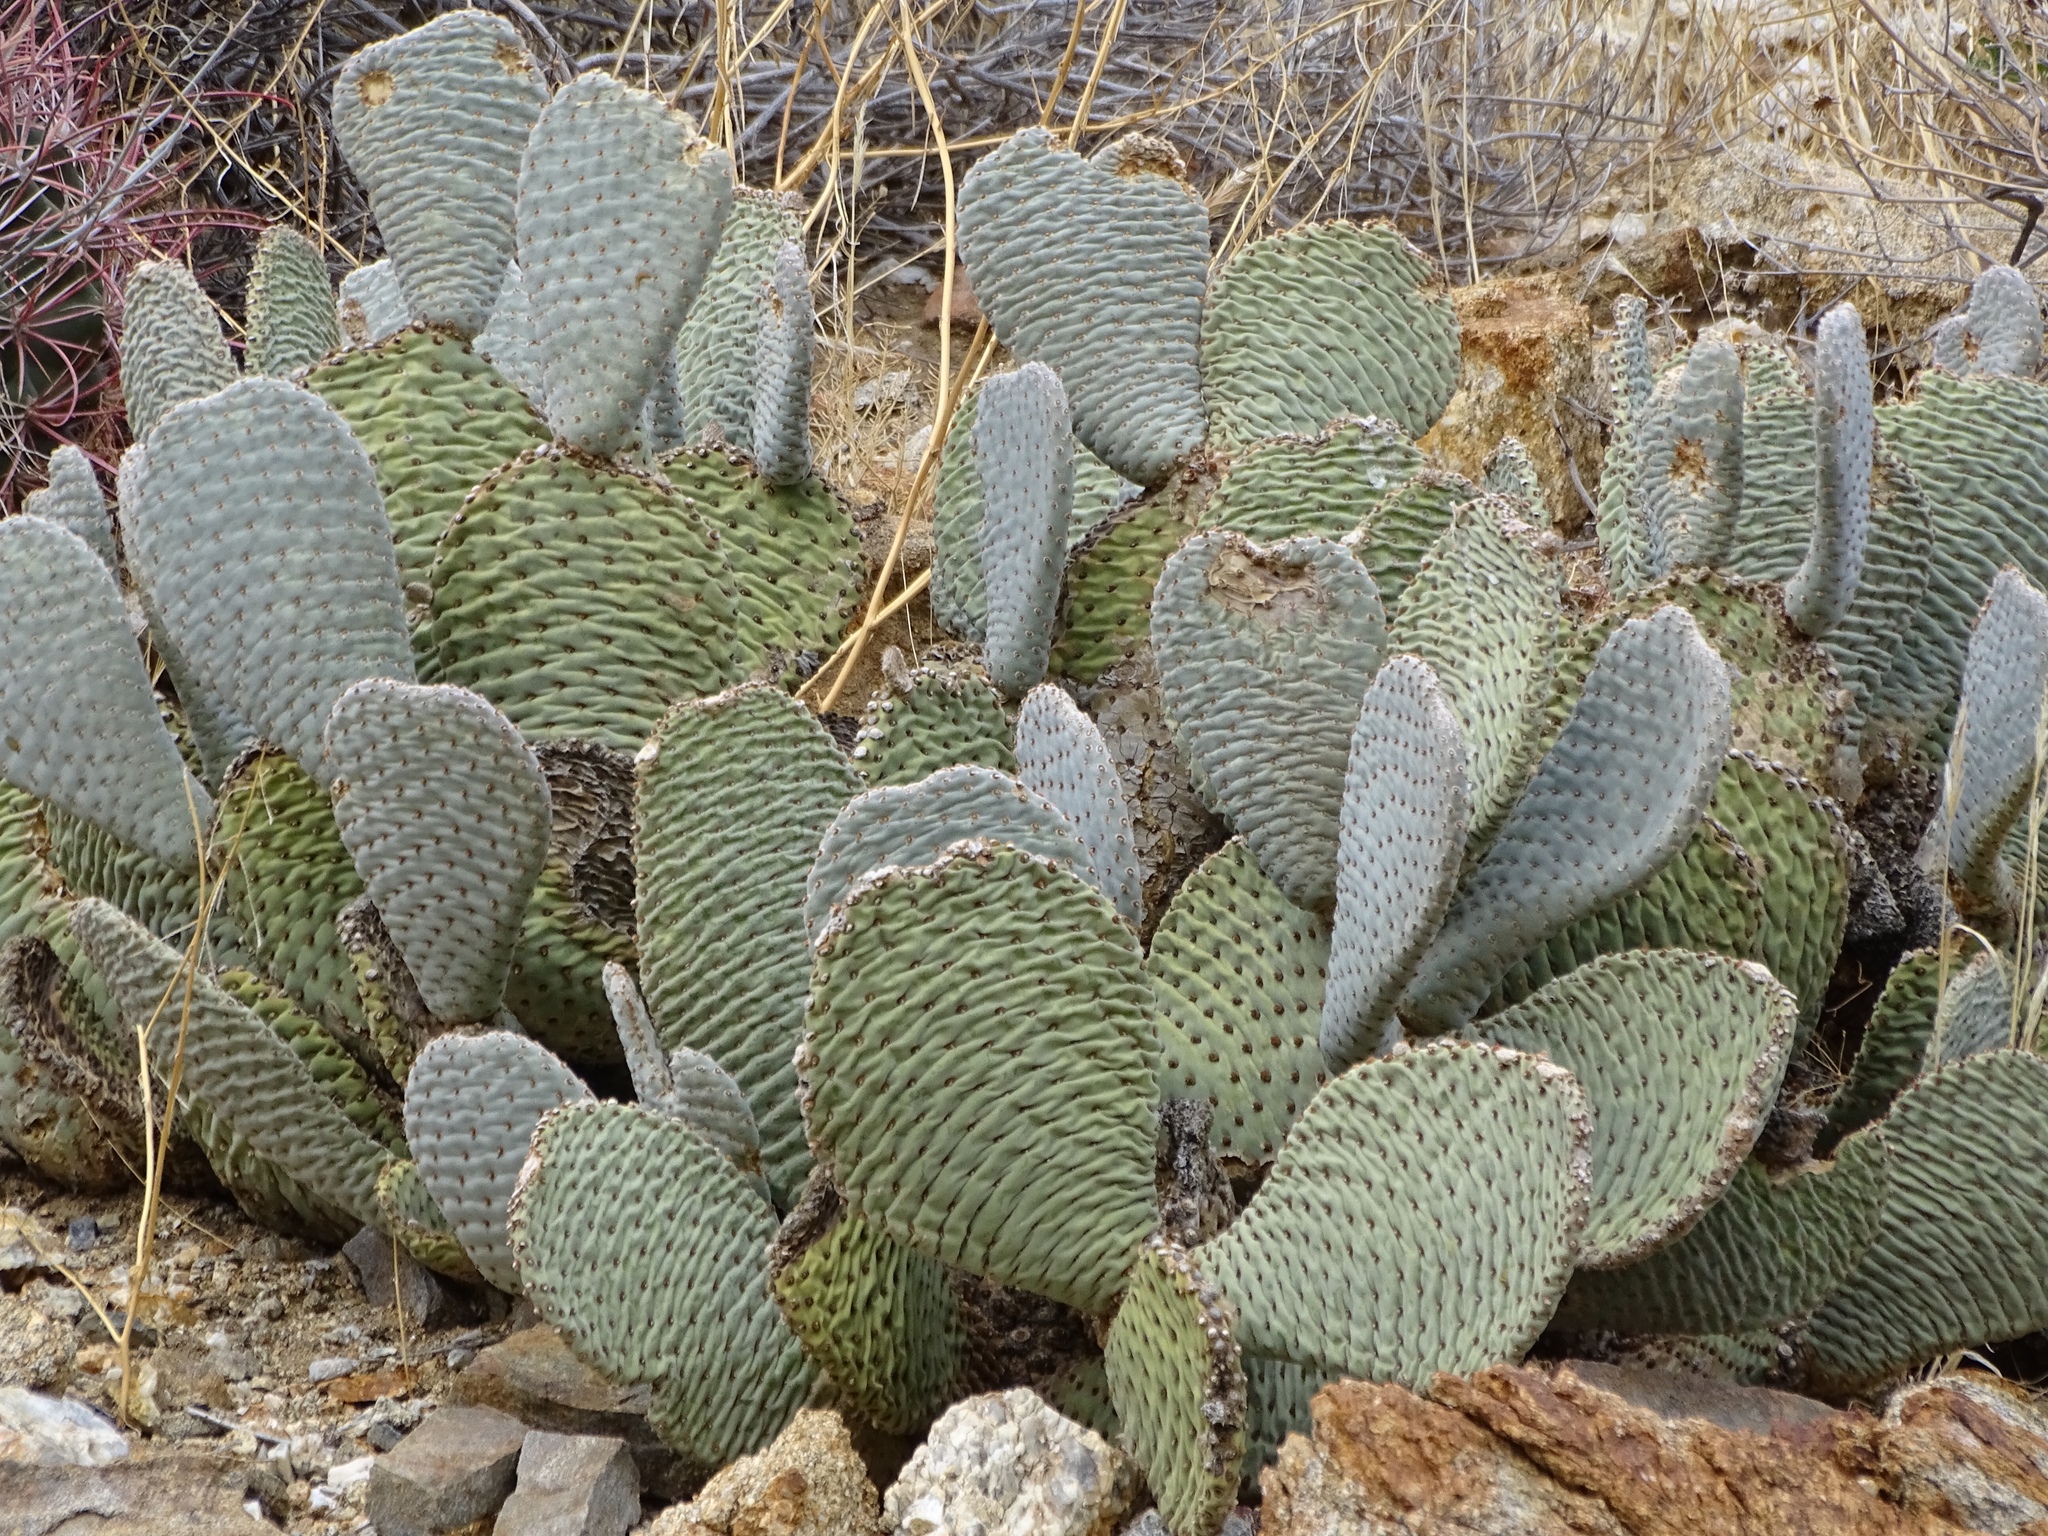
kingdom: Plantae
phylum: Tracheophyta
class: Magnoliopsida
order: Caryophyllales
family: Cactaceae
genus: Opuntia
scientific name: Opuntia basilaris
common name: Beavertail prickly-pear
